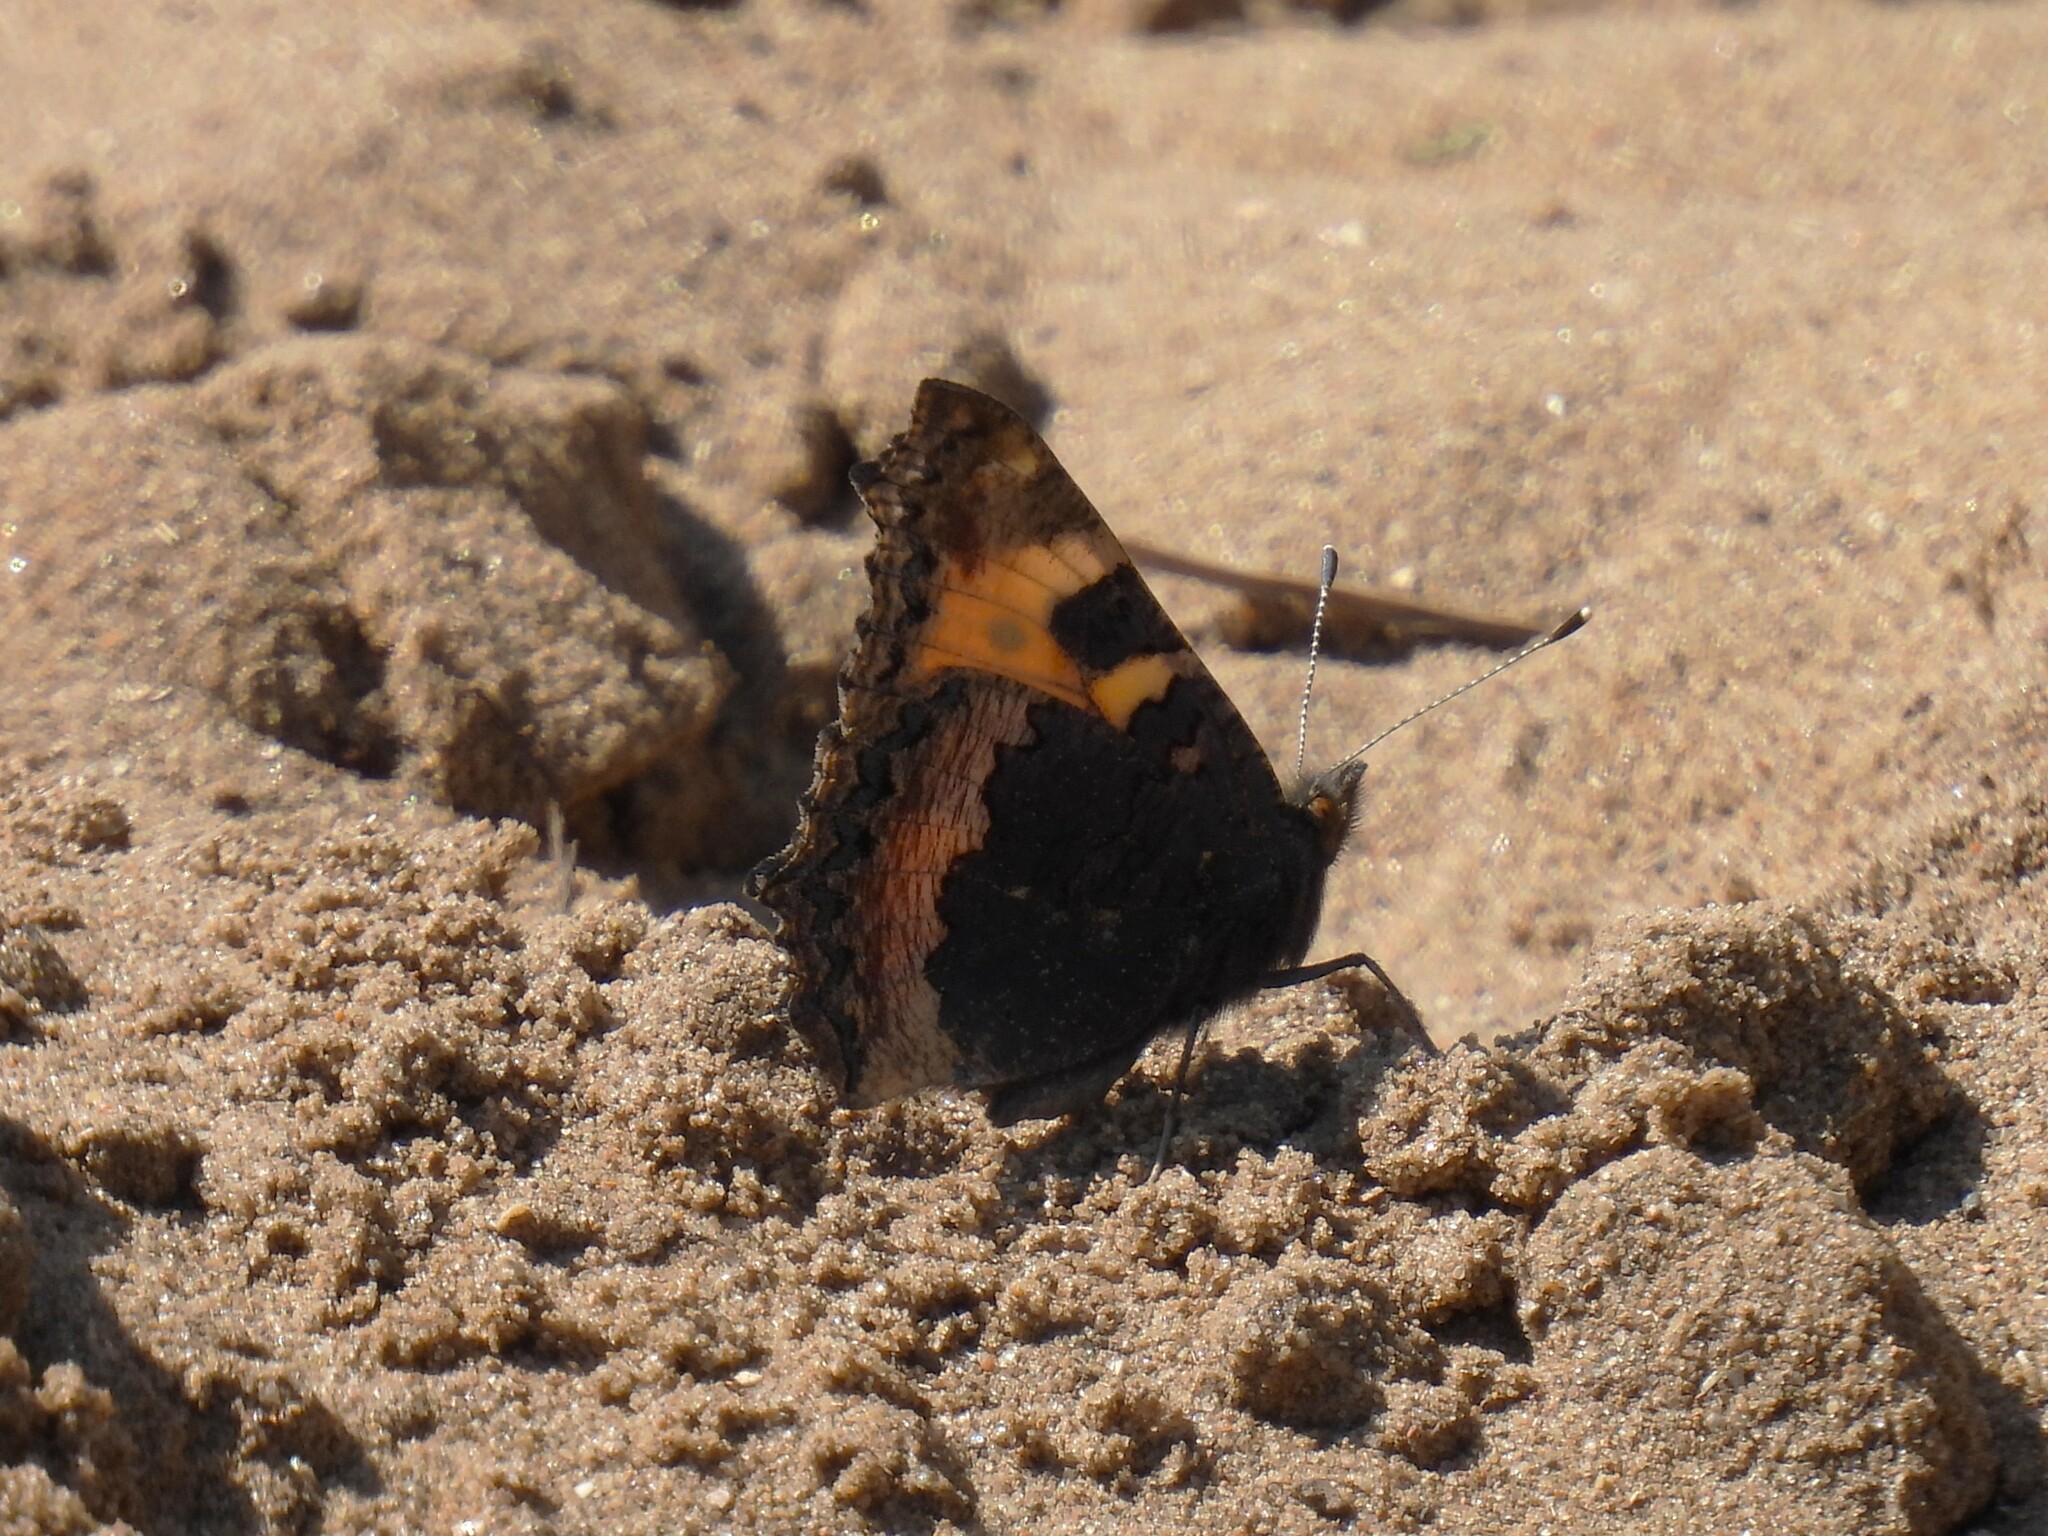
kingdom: Animalia
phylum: Arthropoda
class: Insecta
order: Lepidoptera
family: Nymphalidae
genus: Aglais
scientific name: Aglais urticae
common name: Small tortoiseshell
